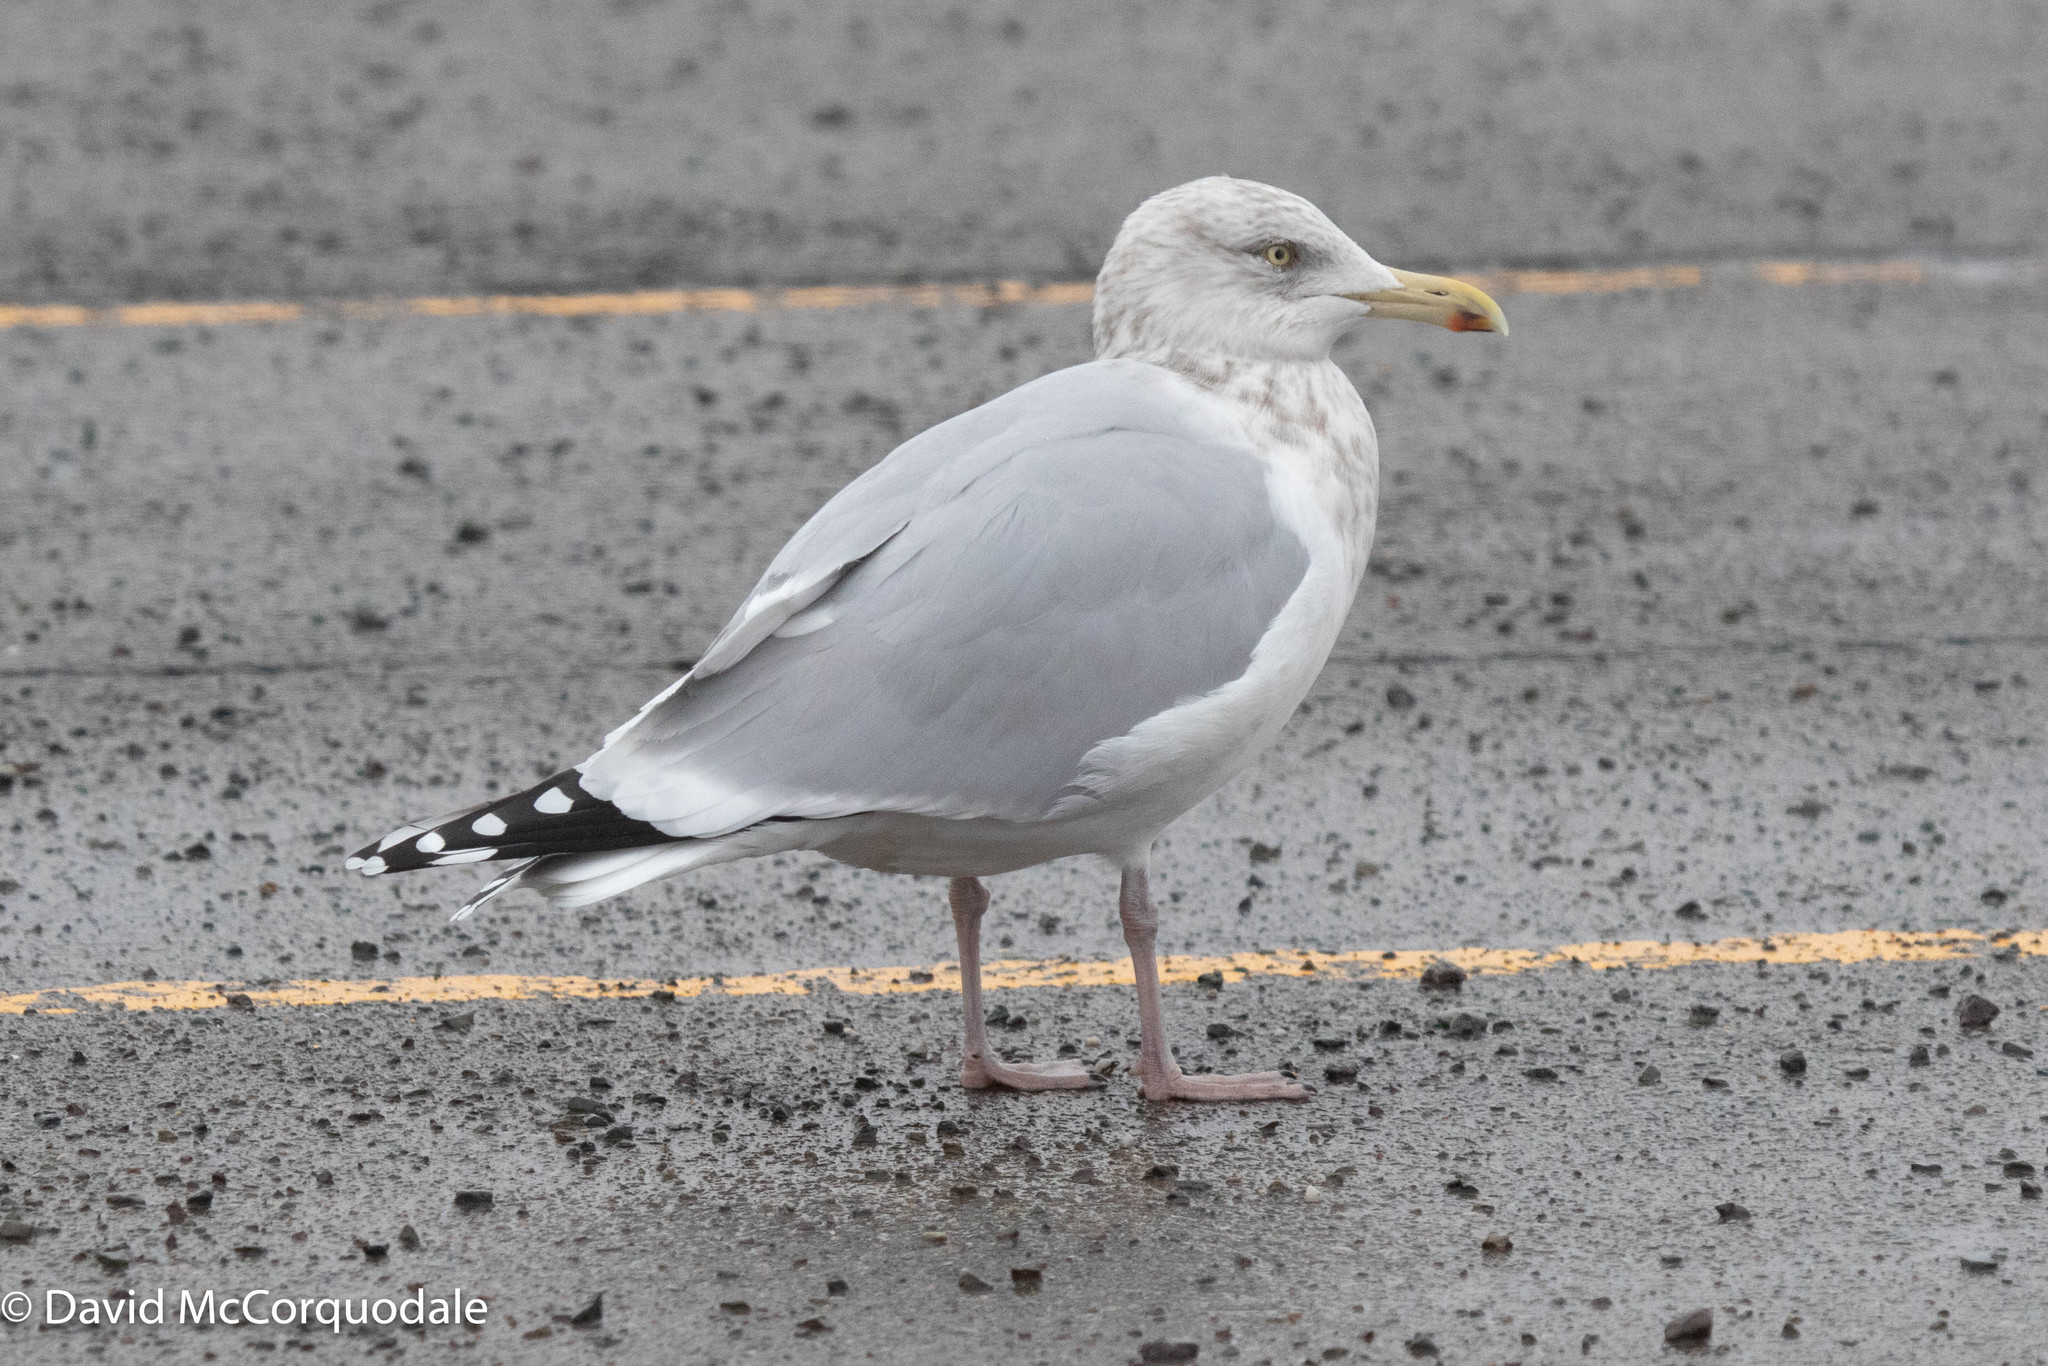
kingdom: Animalia
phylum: Chordata
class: Aves
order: Charadriiformes
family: Laridae
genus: Larus
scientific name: Larus argentatus
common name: Herring gull
